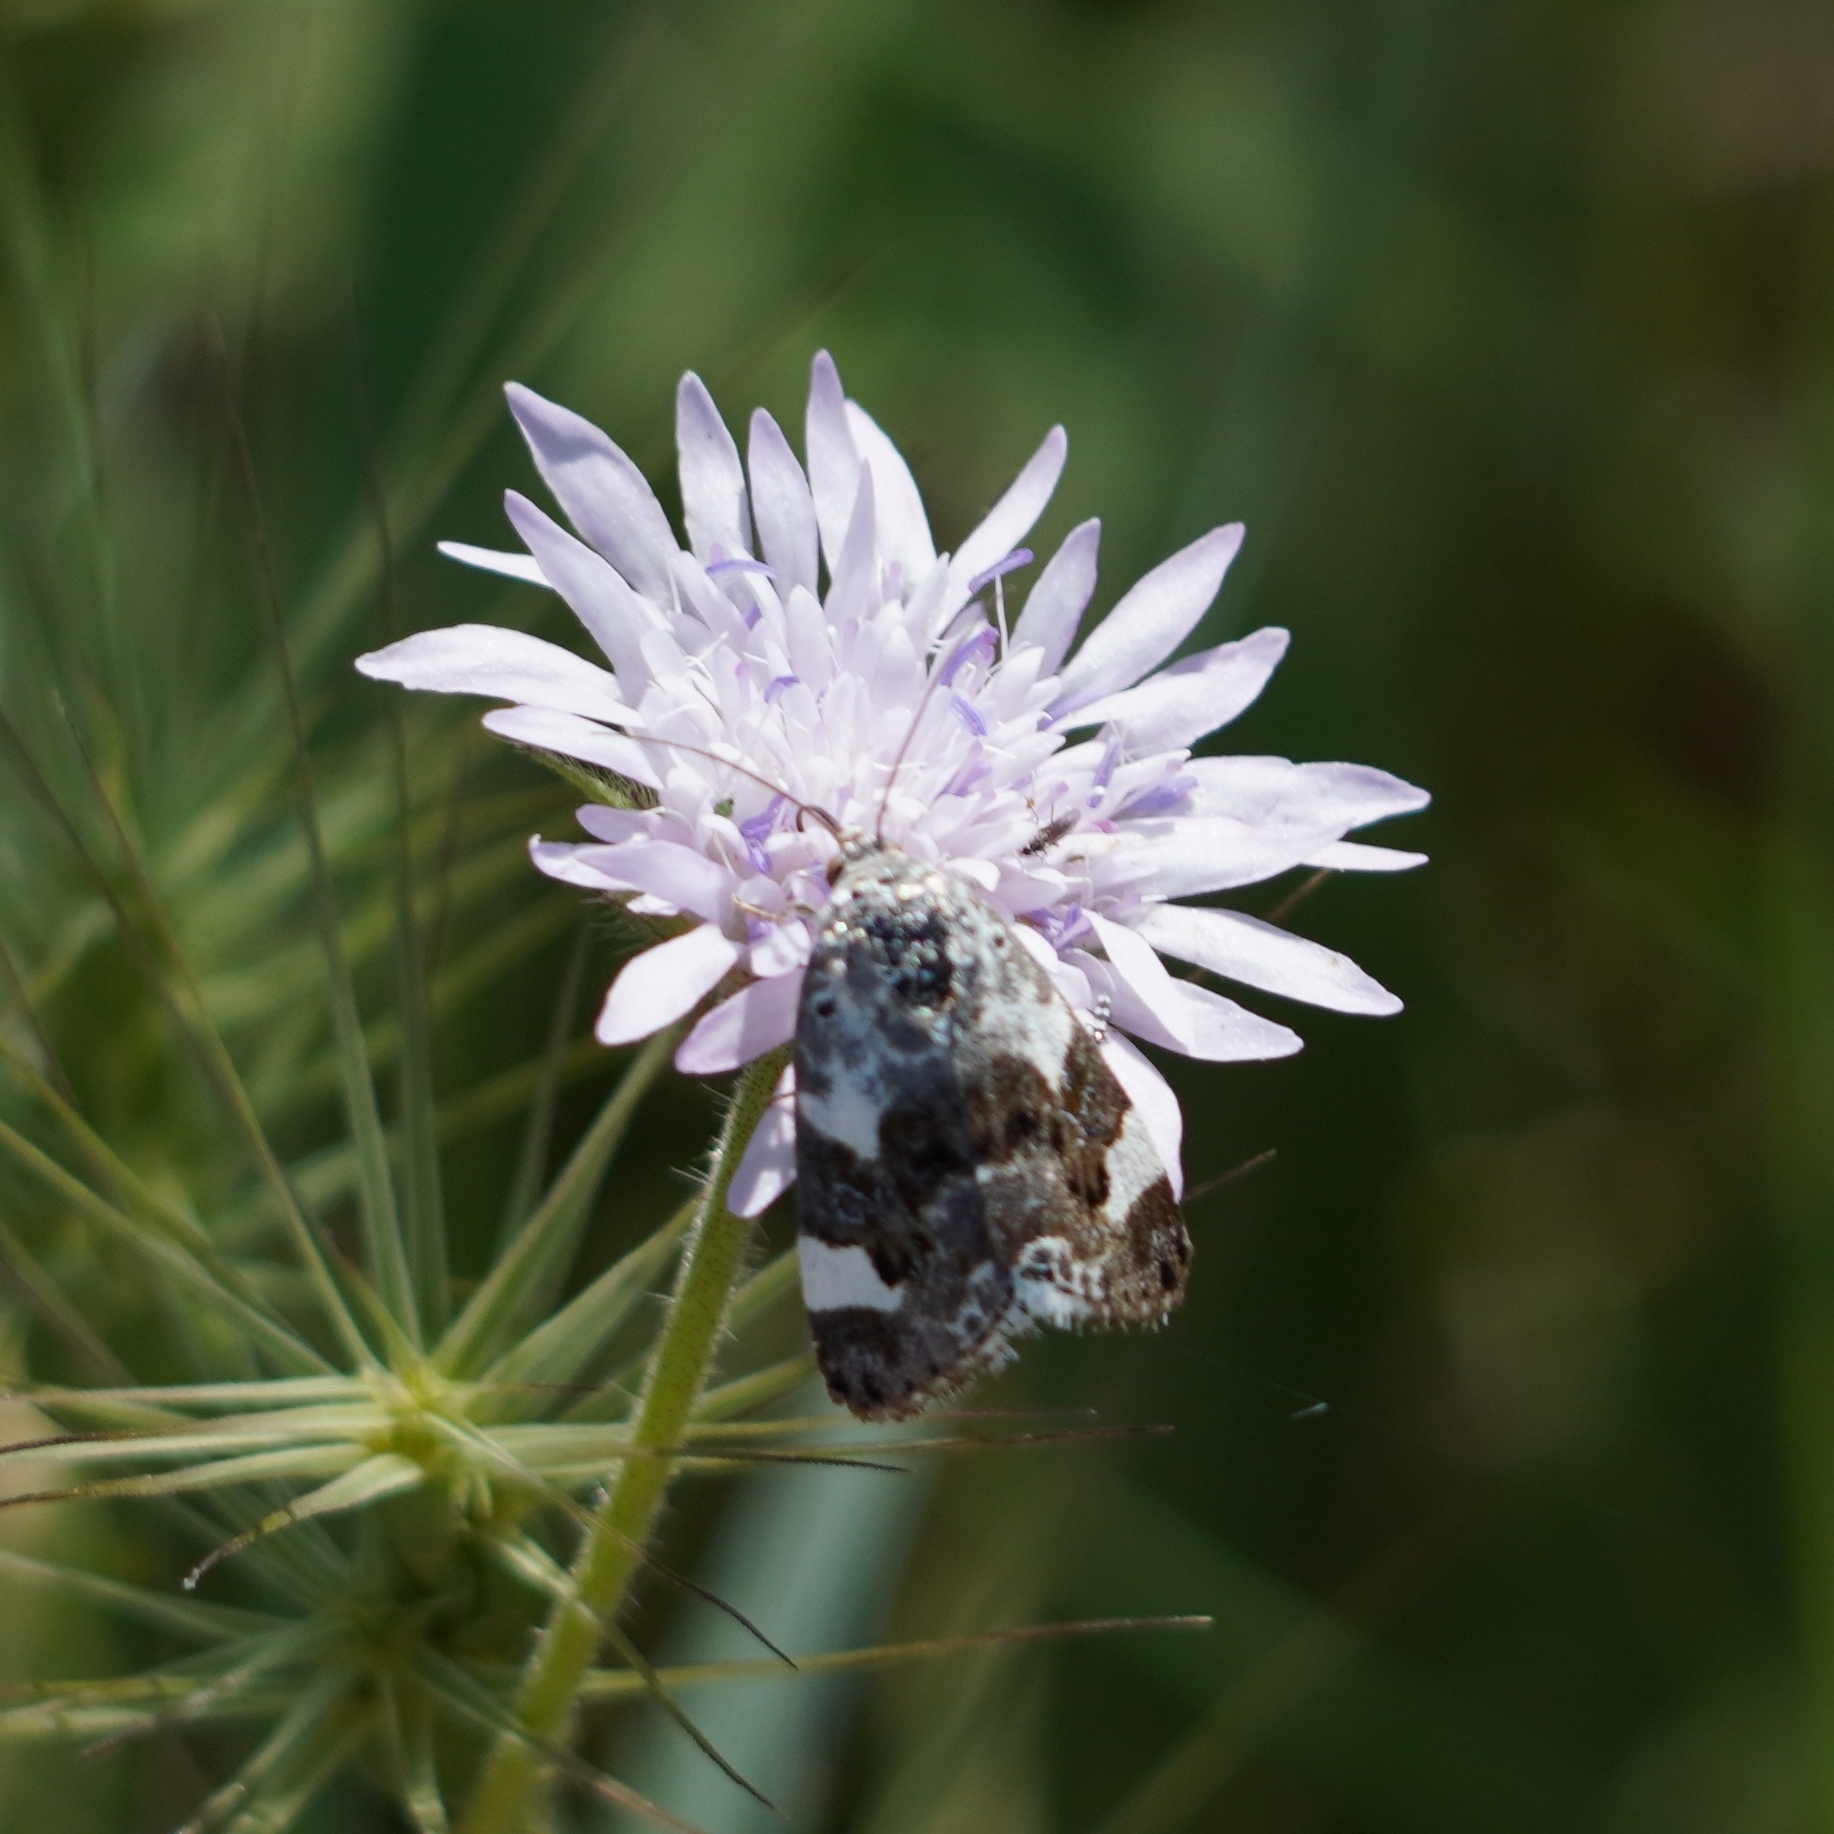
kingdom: Animalia
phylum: Arthropoda
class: Insecta
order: Lepidoptera
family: Noctuidae
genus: Acontia
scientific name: Acontia lucida
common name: Pale shoulder
